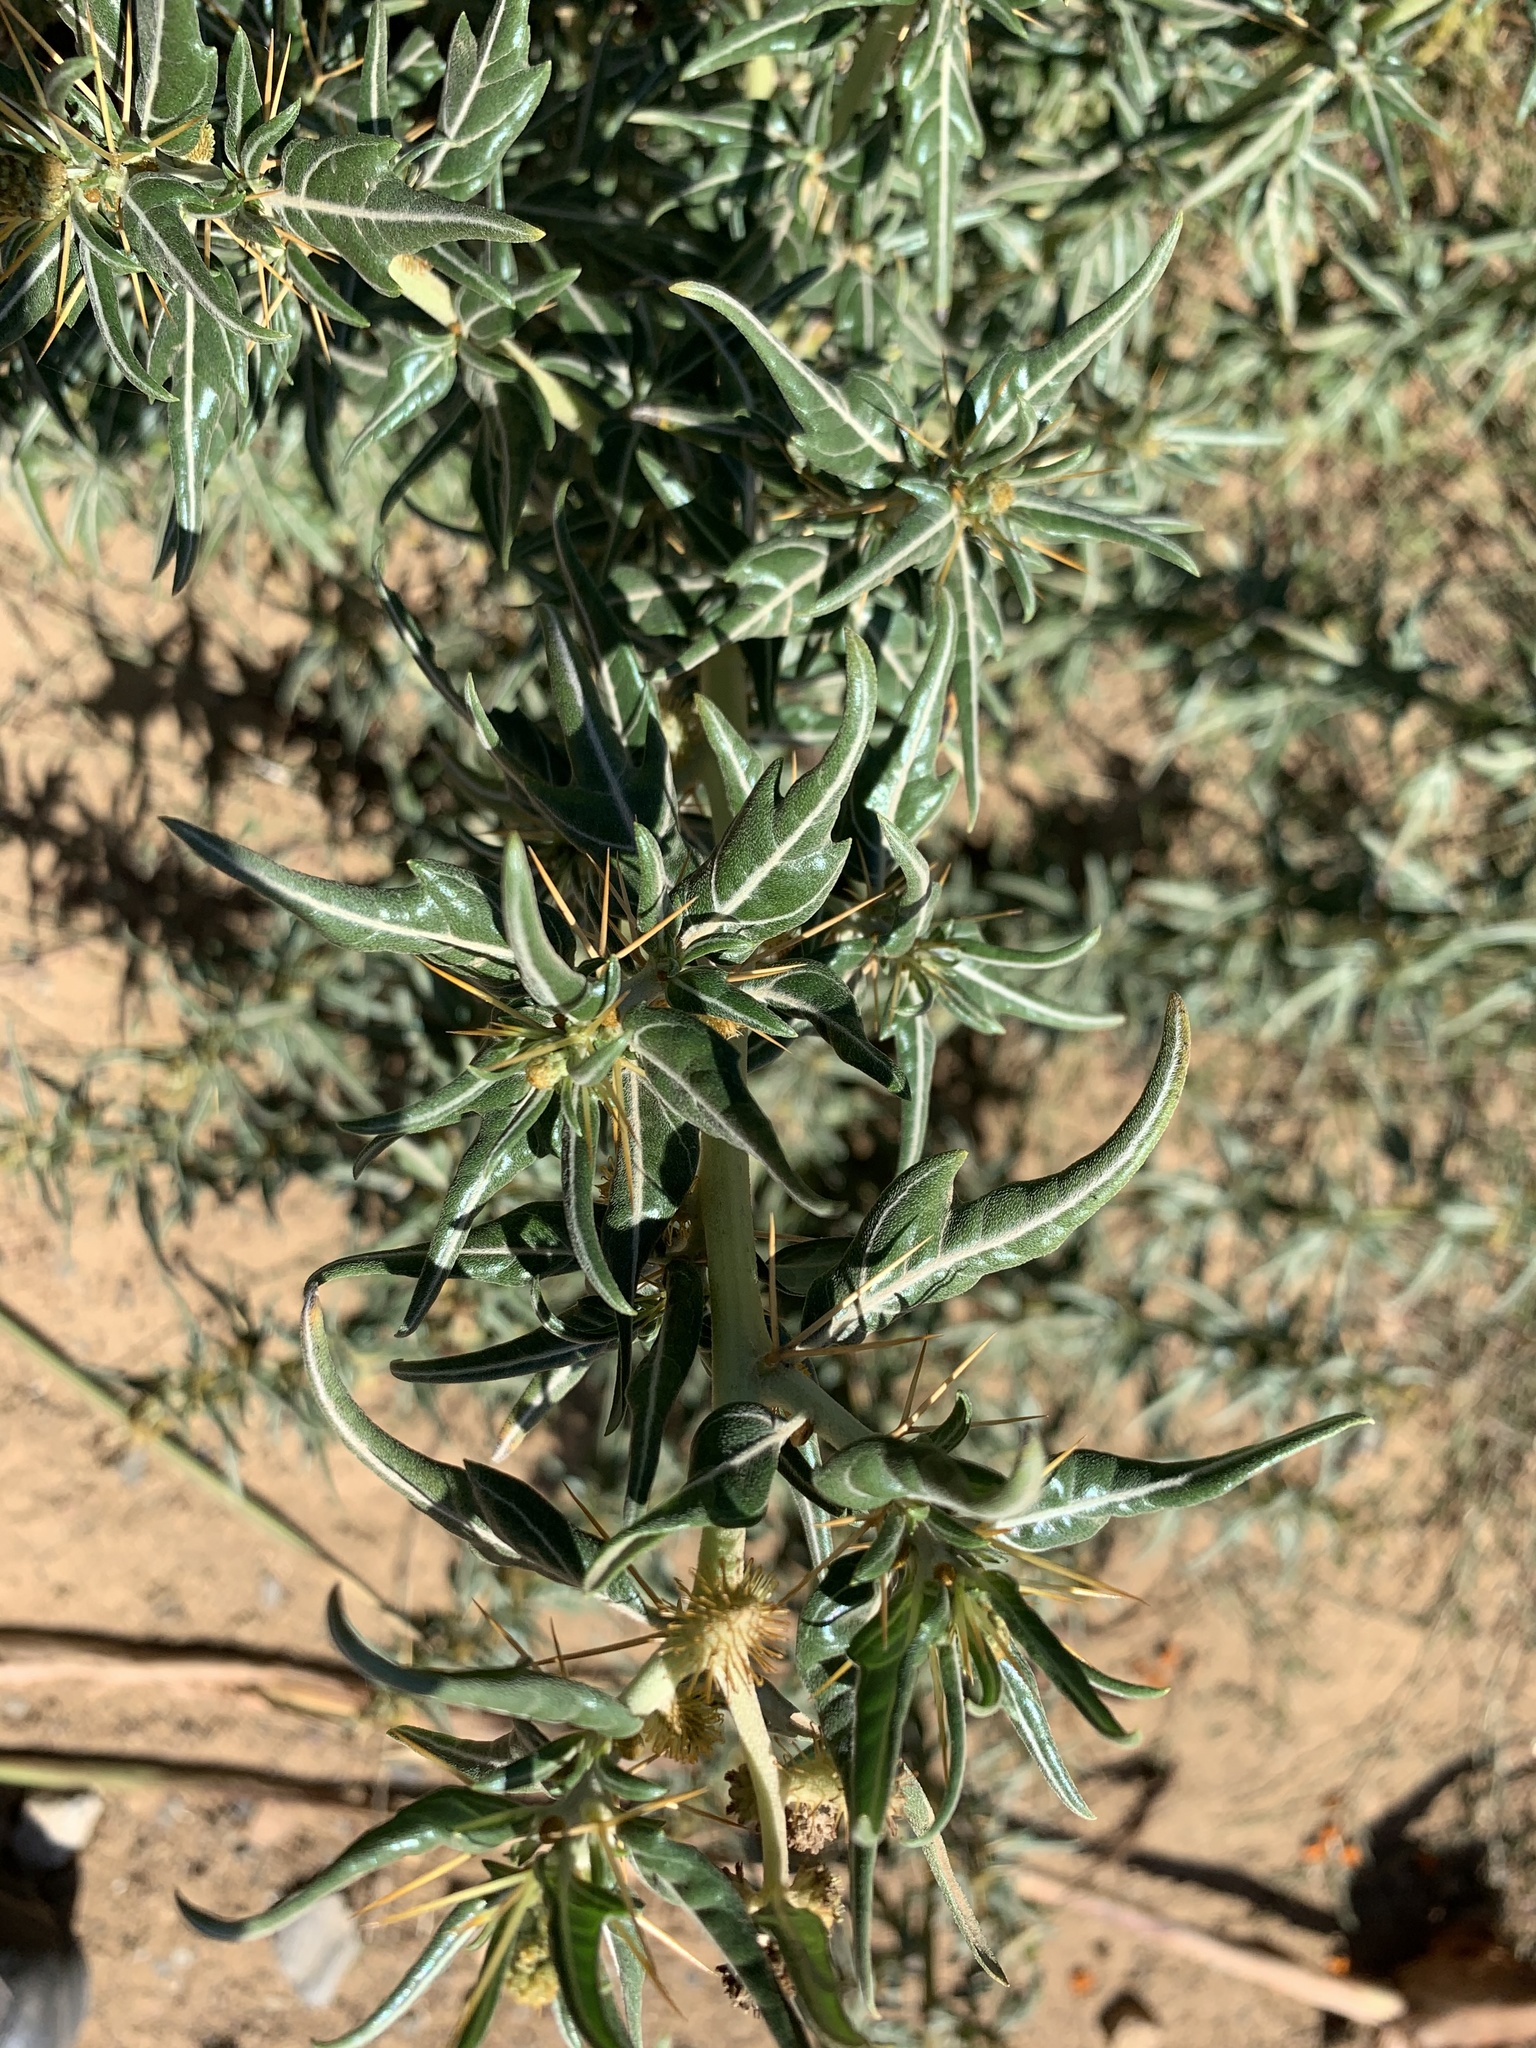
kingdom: Plantae
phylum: Tracheophyta
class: Magnoliopsida
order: Asterales
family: Asteraceae
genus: Xanthium
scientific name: Xanthium spinosum
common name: Spiny cocklebur
